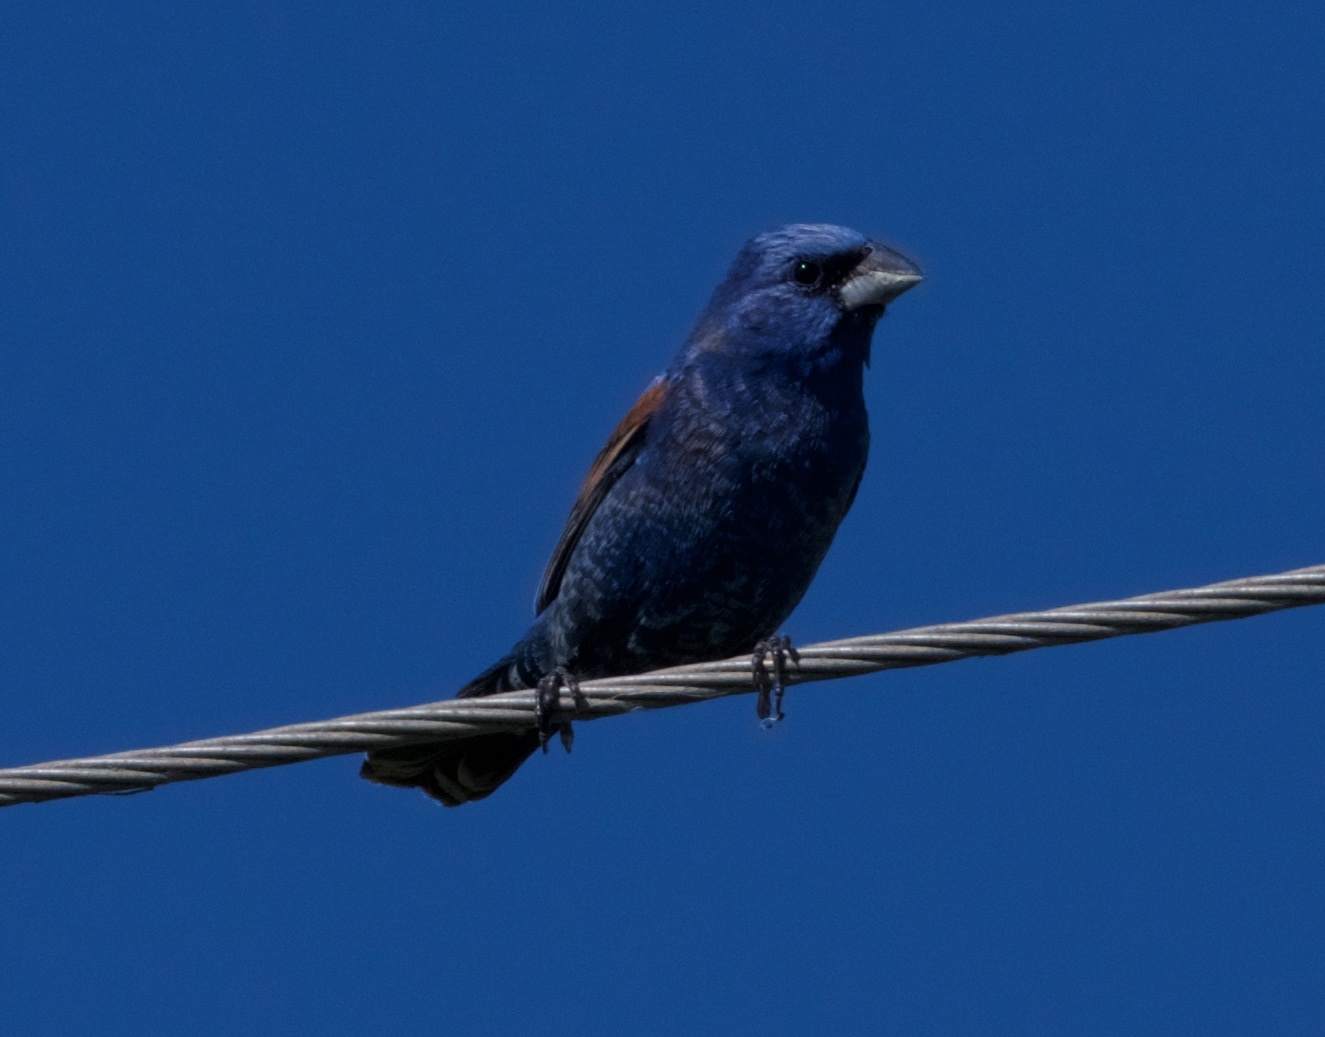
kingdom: Animalia
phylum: Chordata
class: Aves
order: Passeriformes
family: Cardinalidae
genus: Passerina
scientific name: Passerina caerulea
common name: Blue grosbeak
